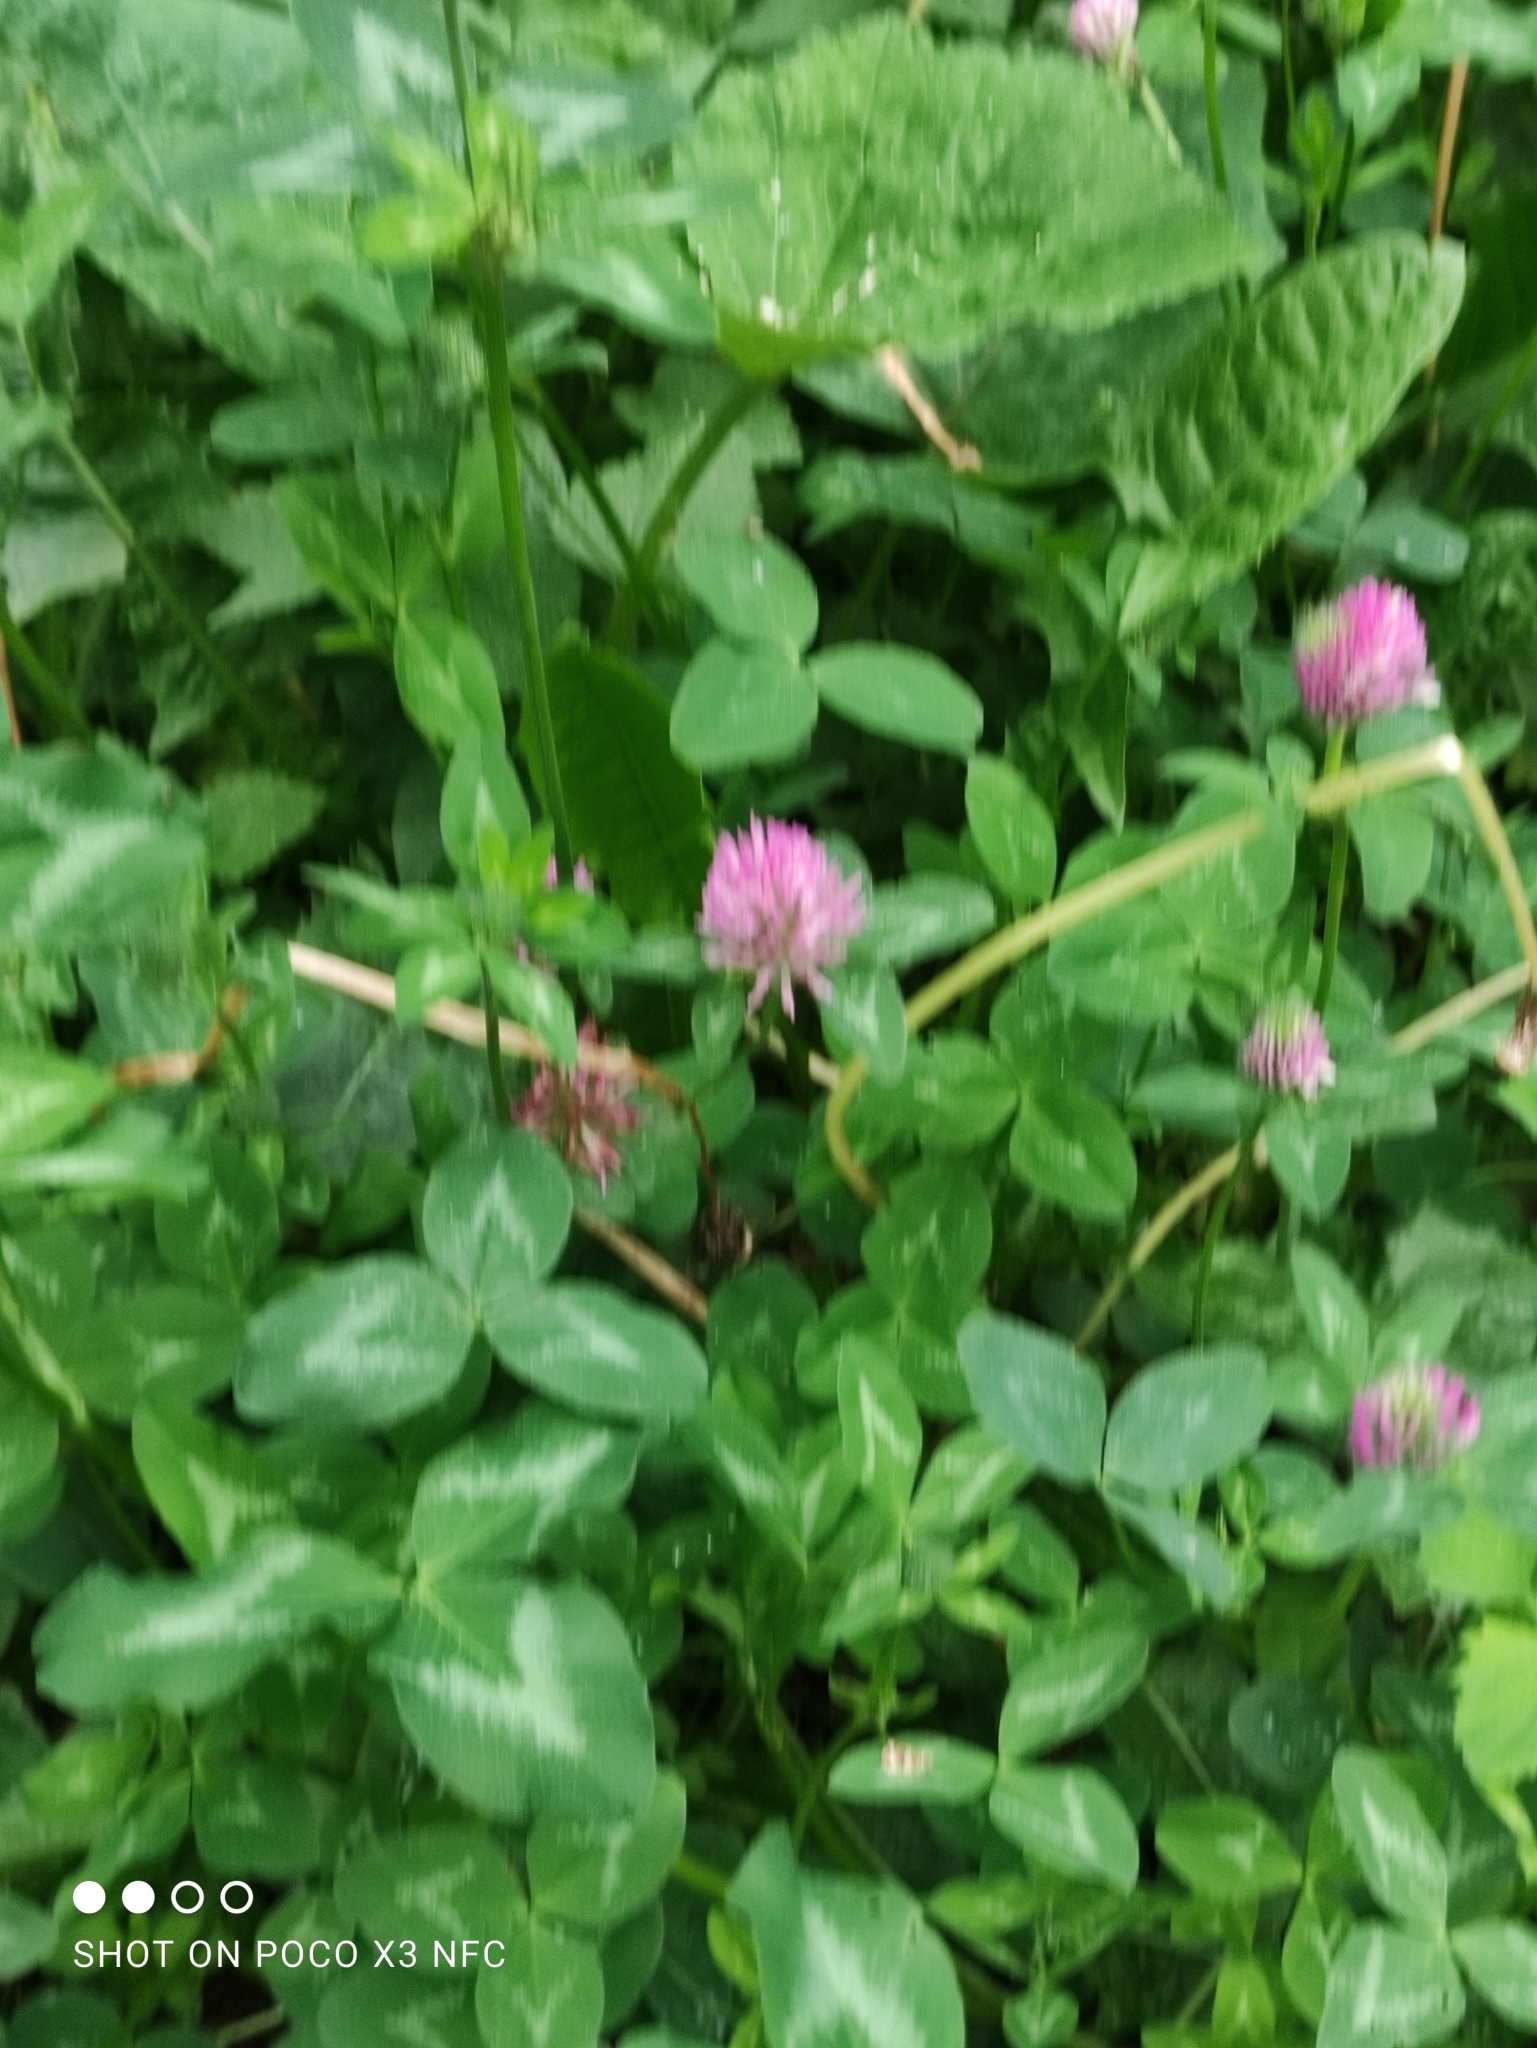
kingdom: Plantae
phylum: Tracheophyta
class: Magnoliopsida
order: Fabales
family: Fabaceae
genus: Trifolium
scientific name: Trifolium pratense
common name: Red clover
